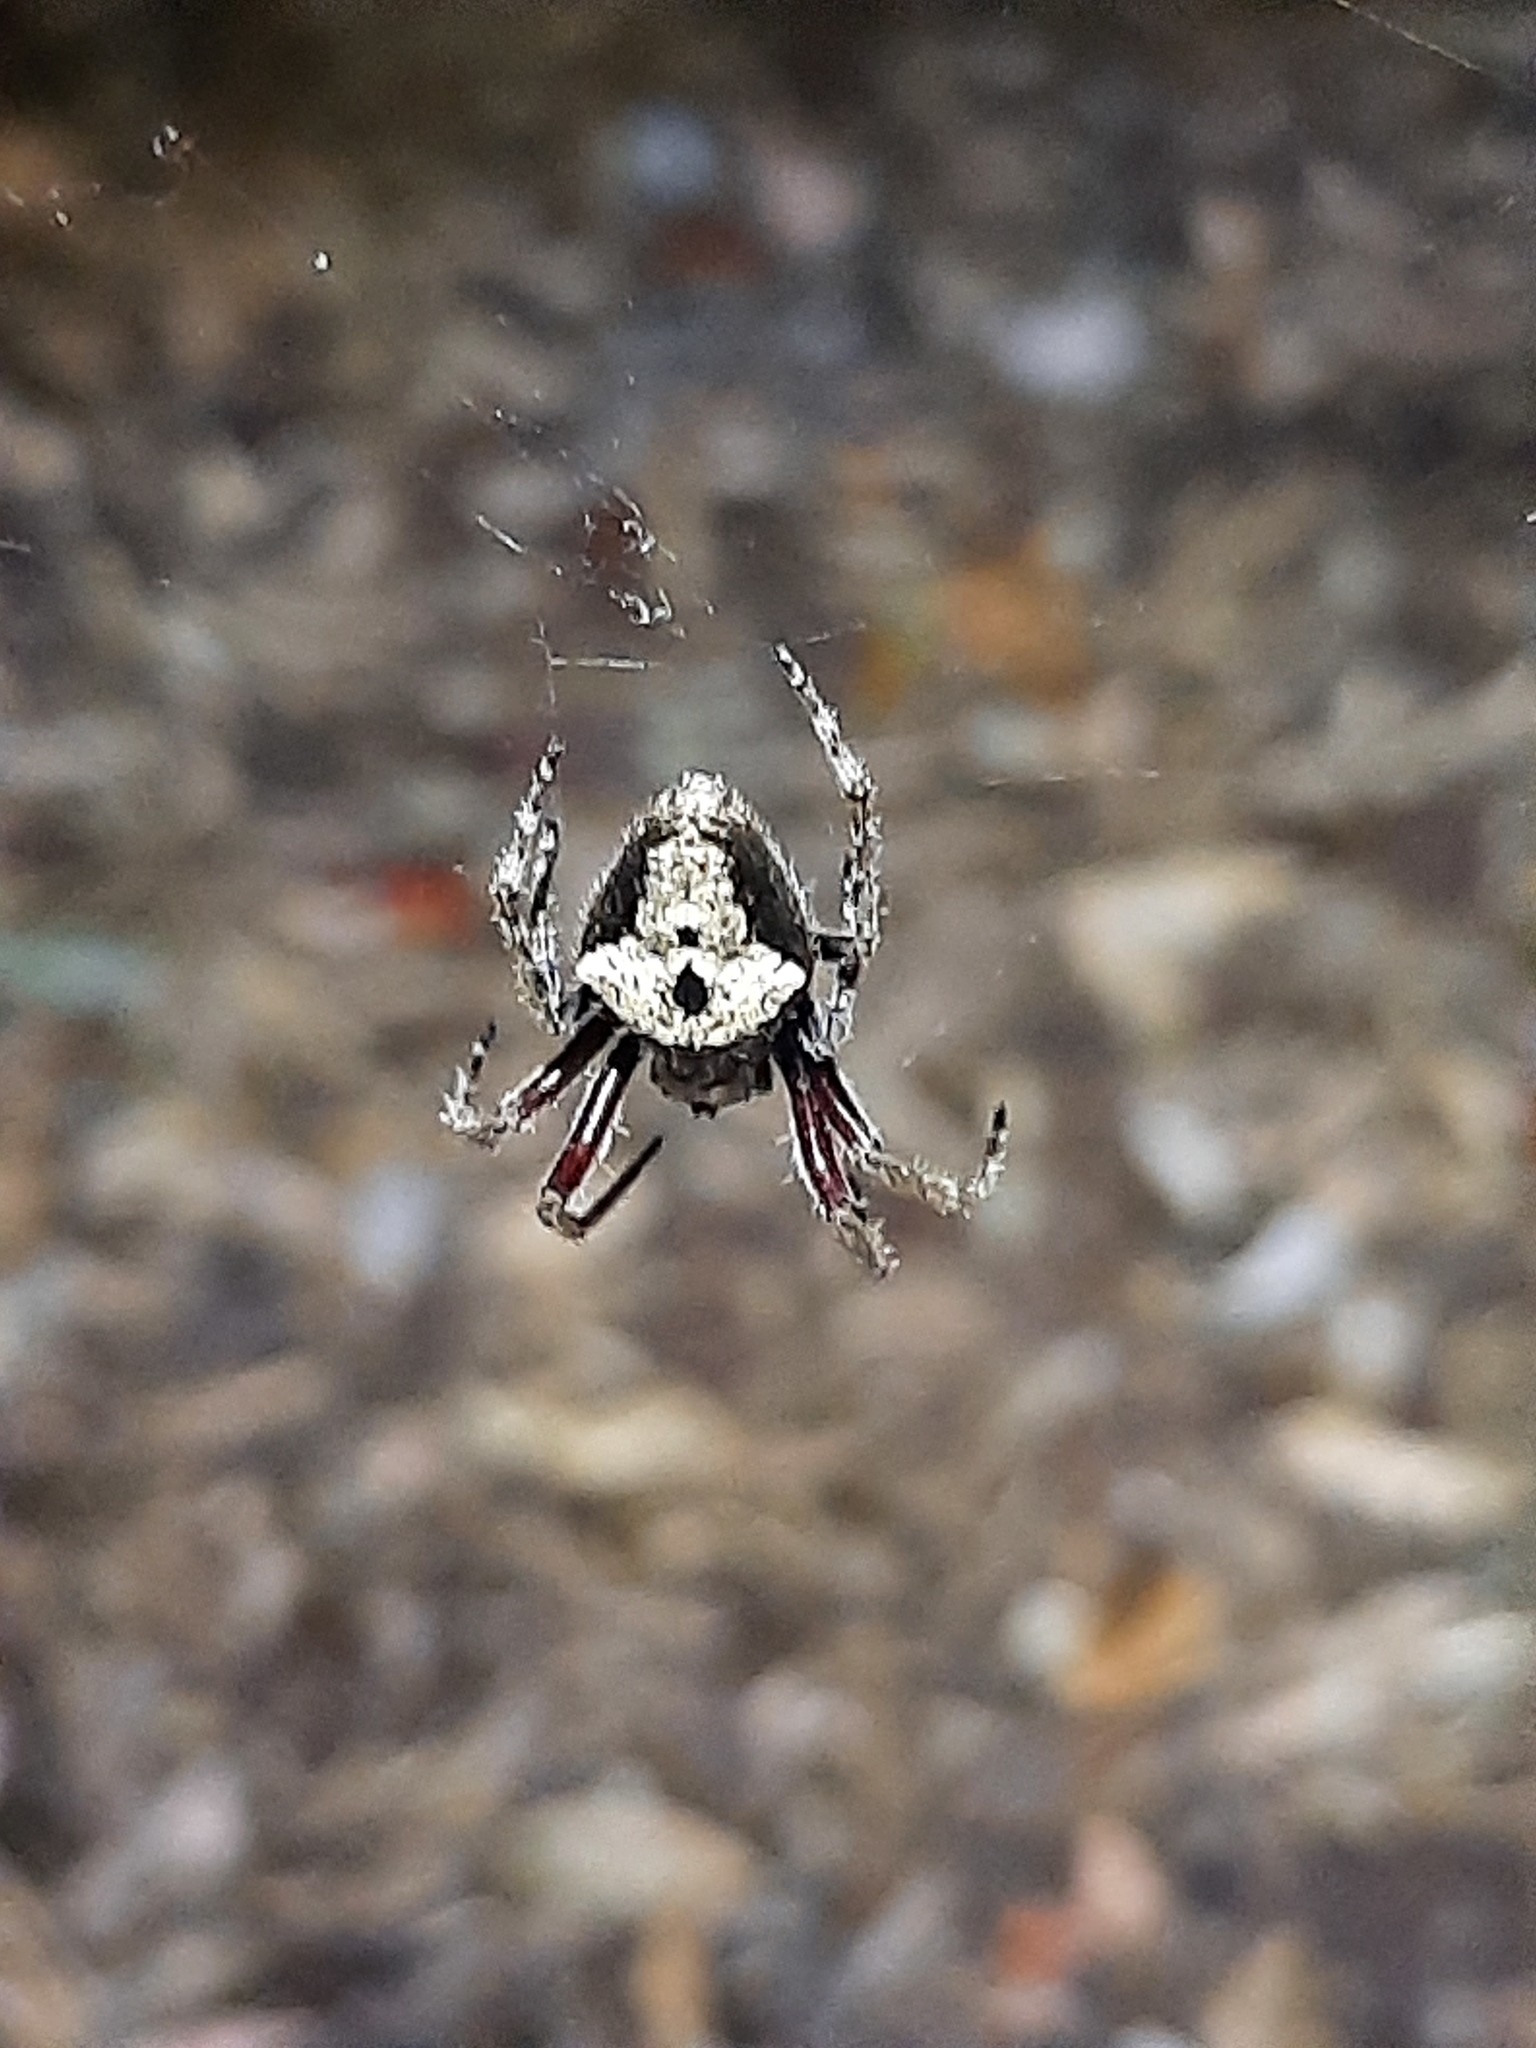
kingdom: Animalia
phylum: Arthropoda
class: Arachnida
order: Araneae
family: Araneidae
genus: Eriophora
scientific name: Eriophora pustulosa
